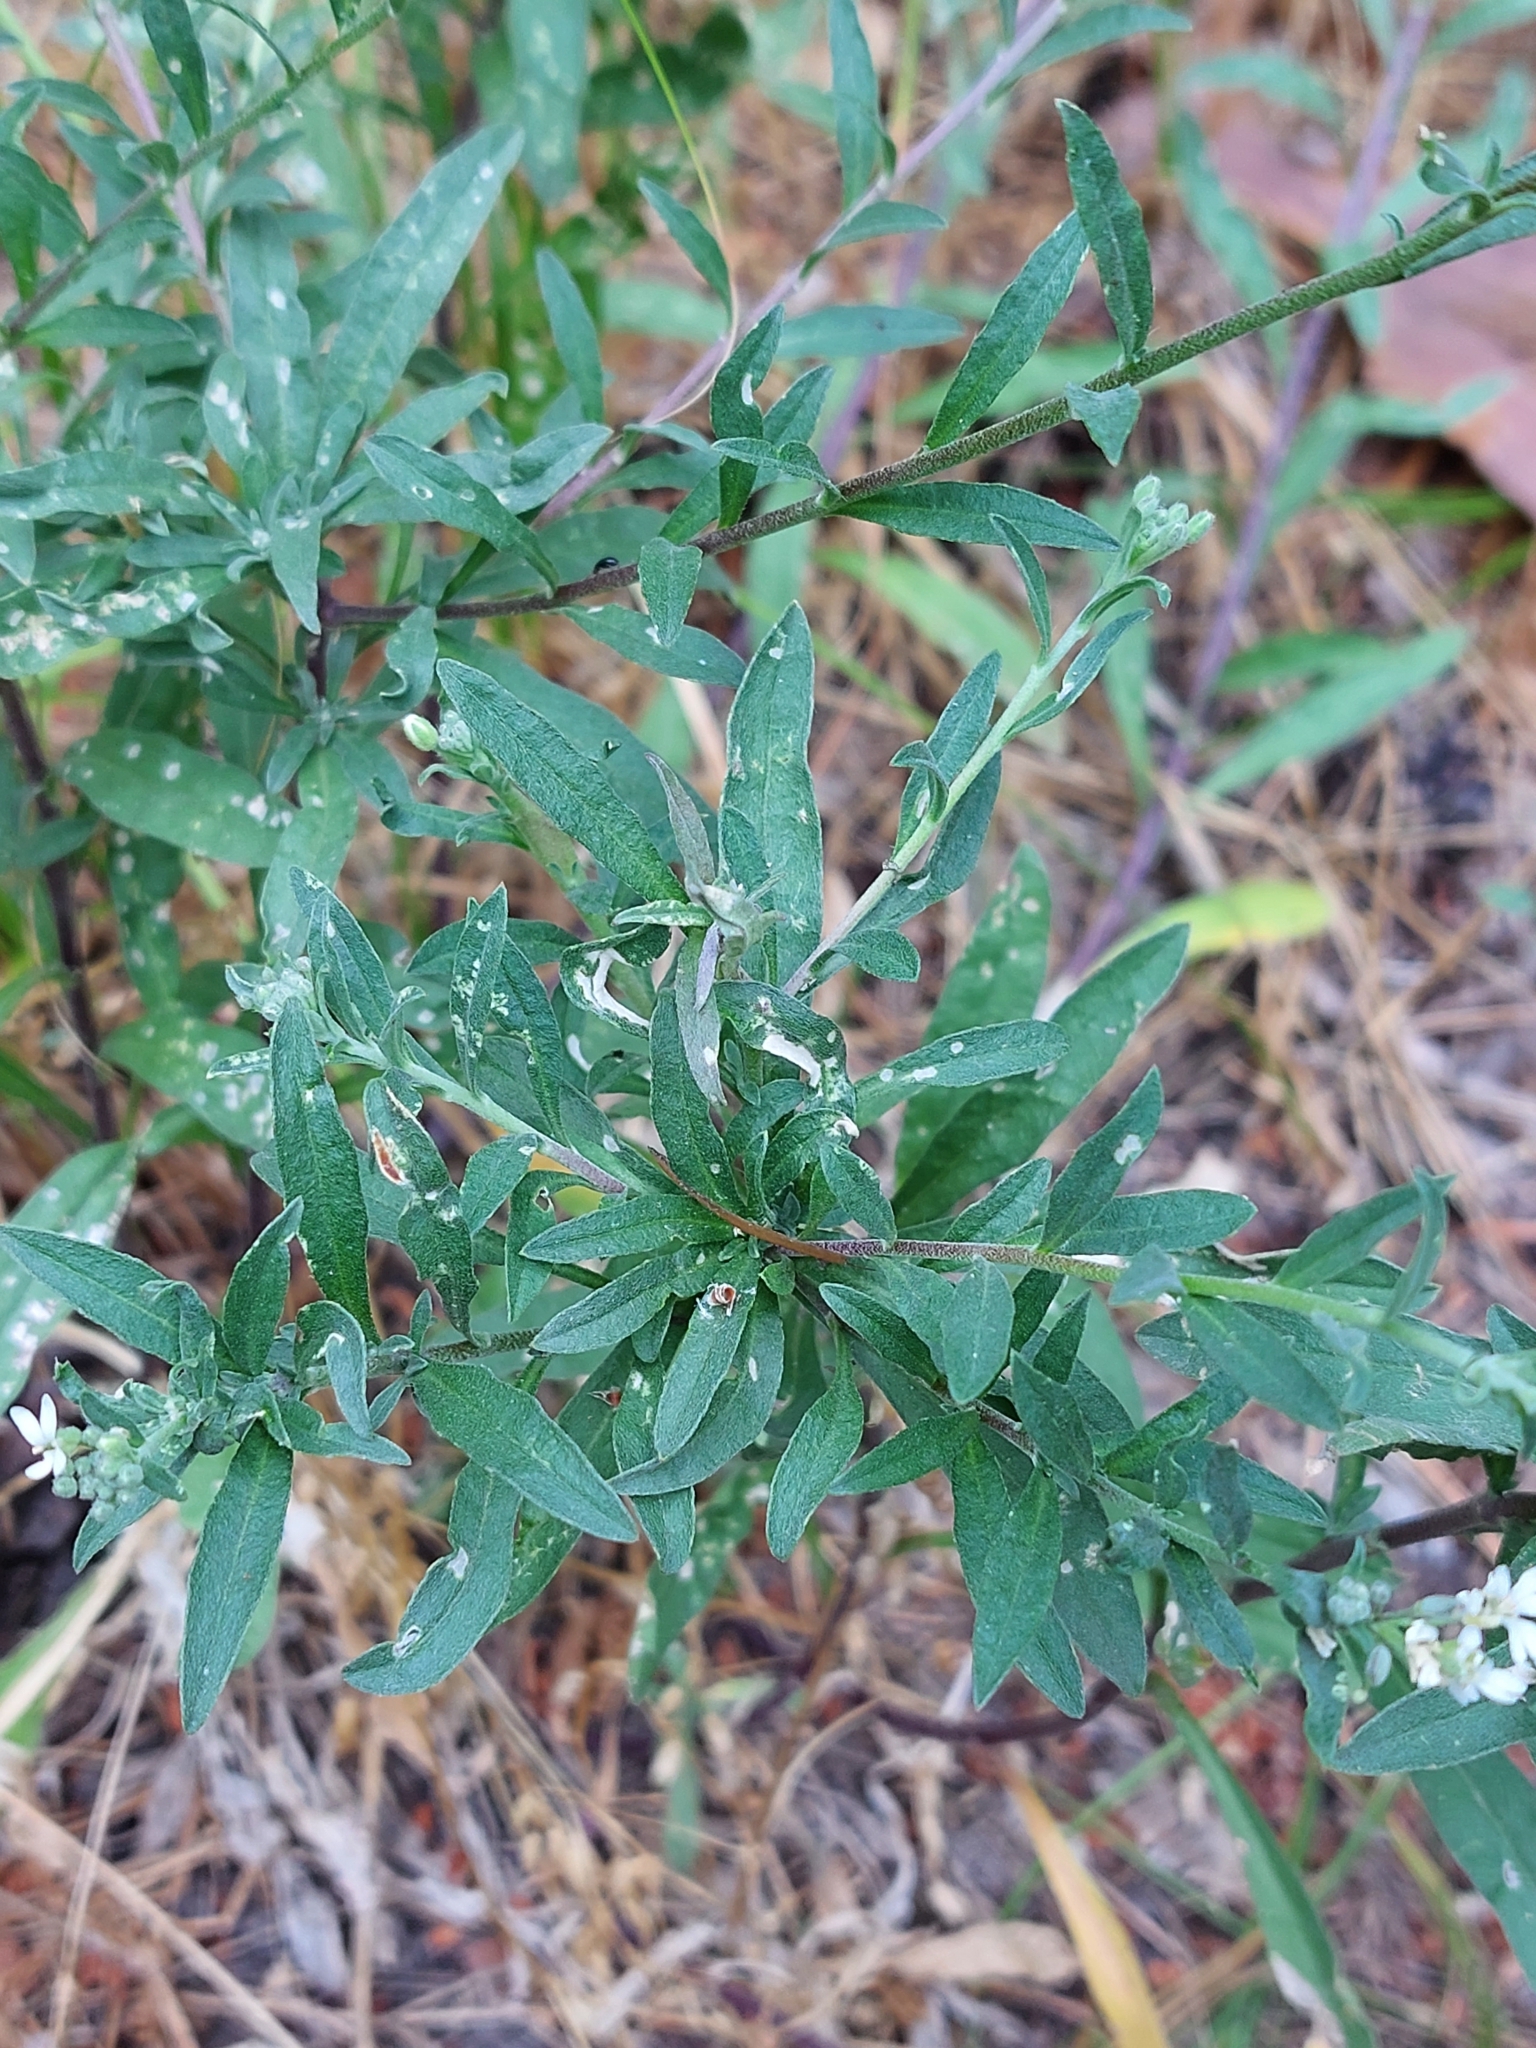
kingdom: Plantae
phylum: Tracheophyta
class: Magnoliopsida
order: Brassicales
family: Brassicaceae
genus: Berteroa
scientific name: Berteroa incana
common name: Hoary alison
